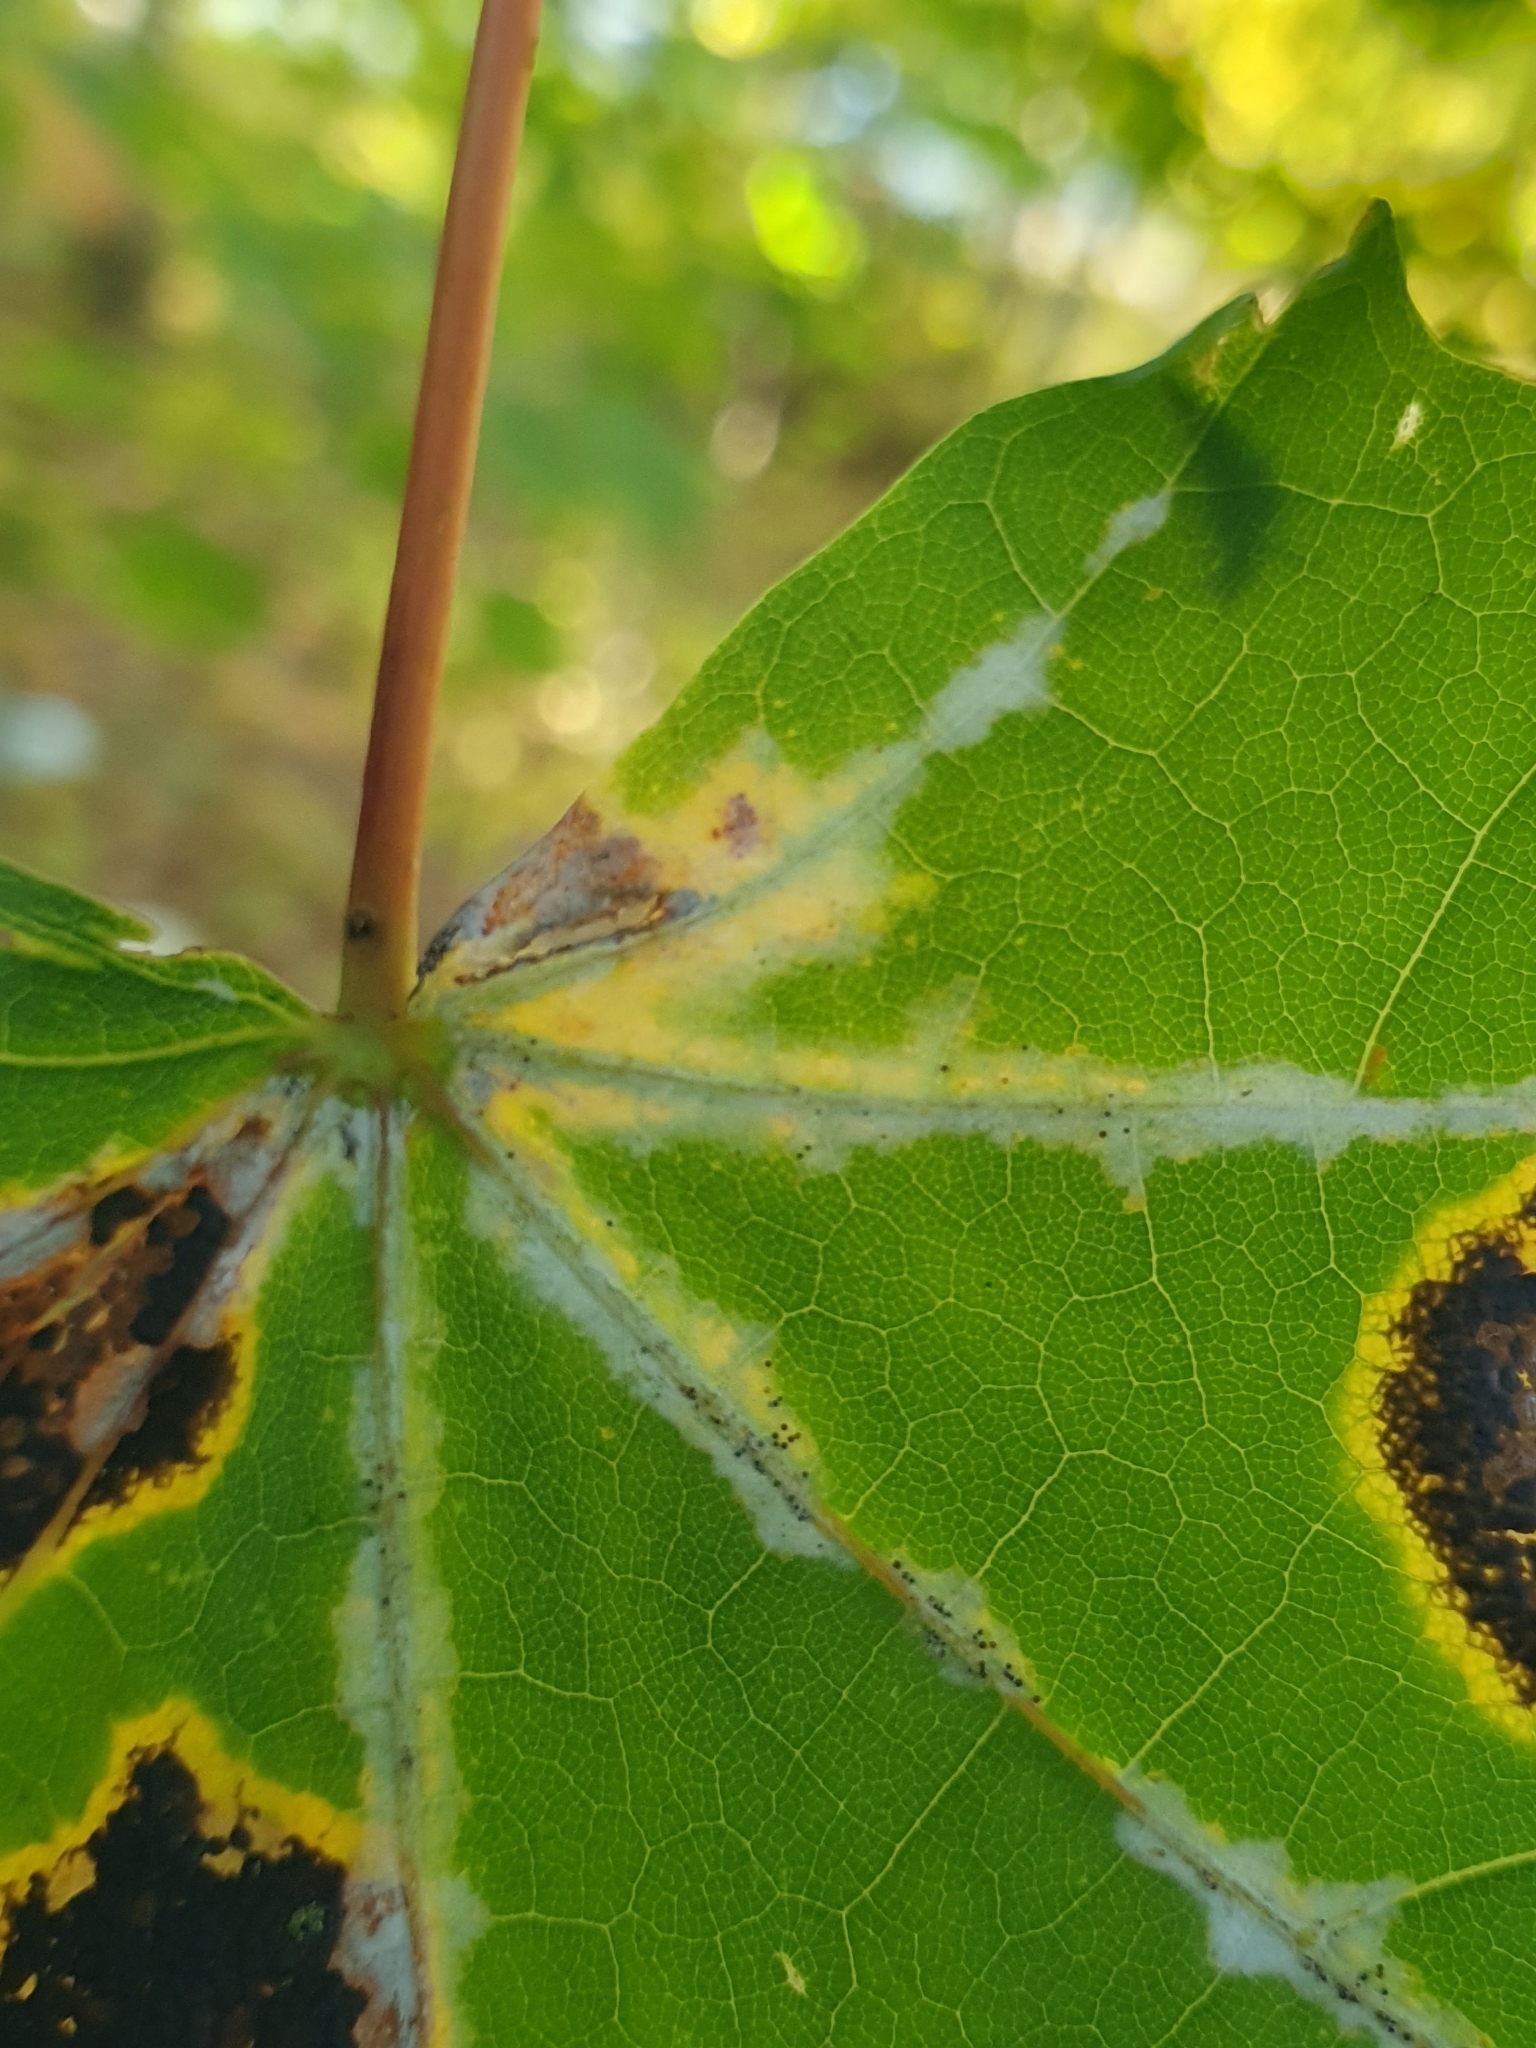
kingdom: Fungi
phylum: Ascomycota
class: Leotiomycetes
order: Helotiales
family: Erysiphaceae
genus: Sawadaea
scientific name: Sawadaea tulasnei
